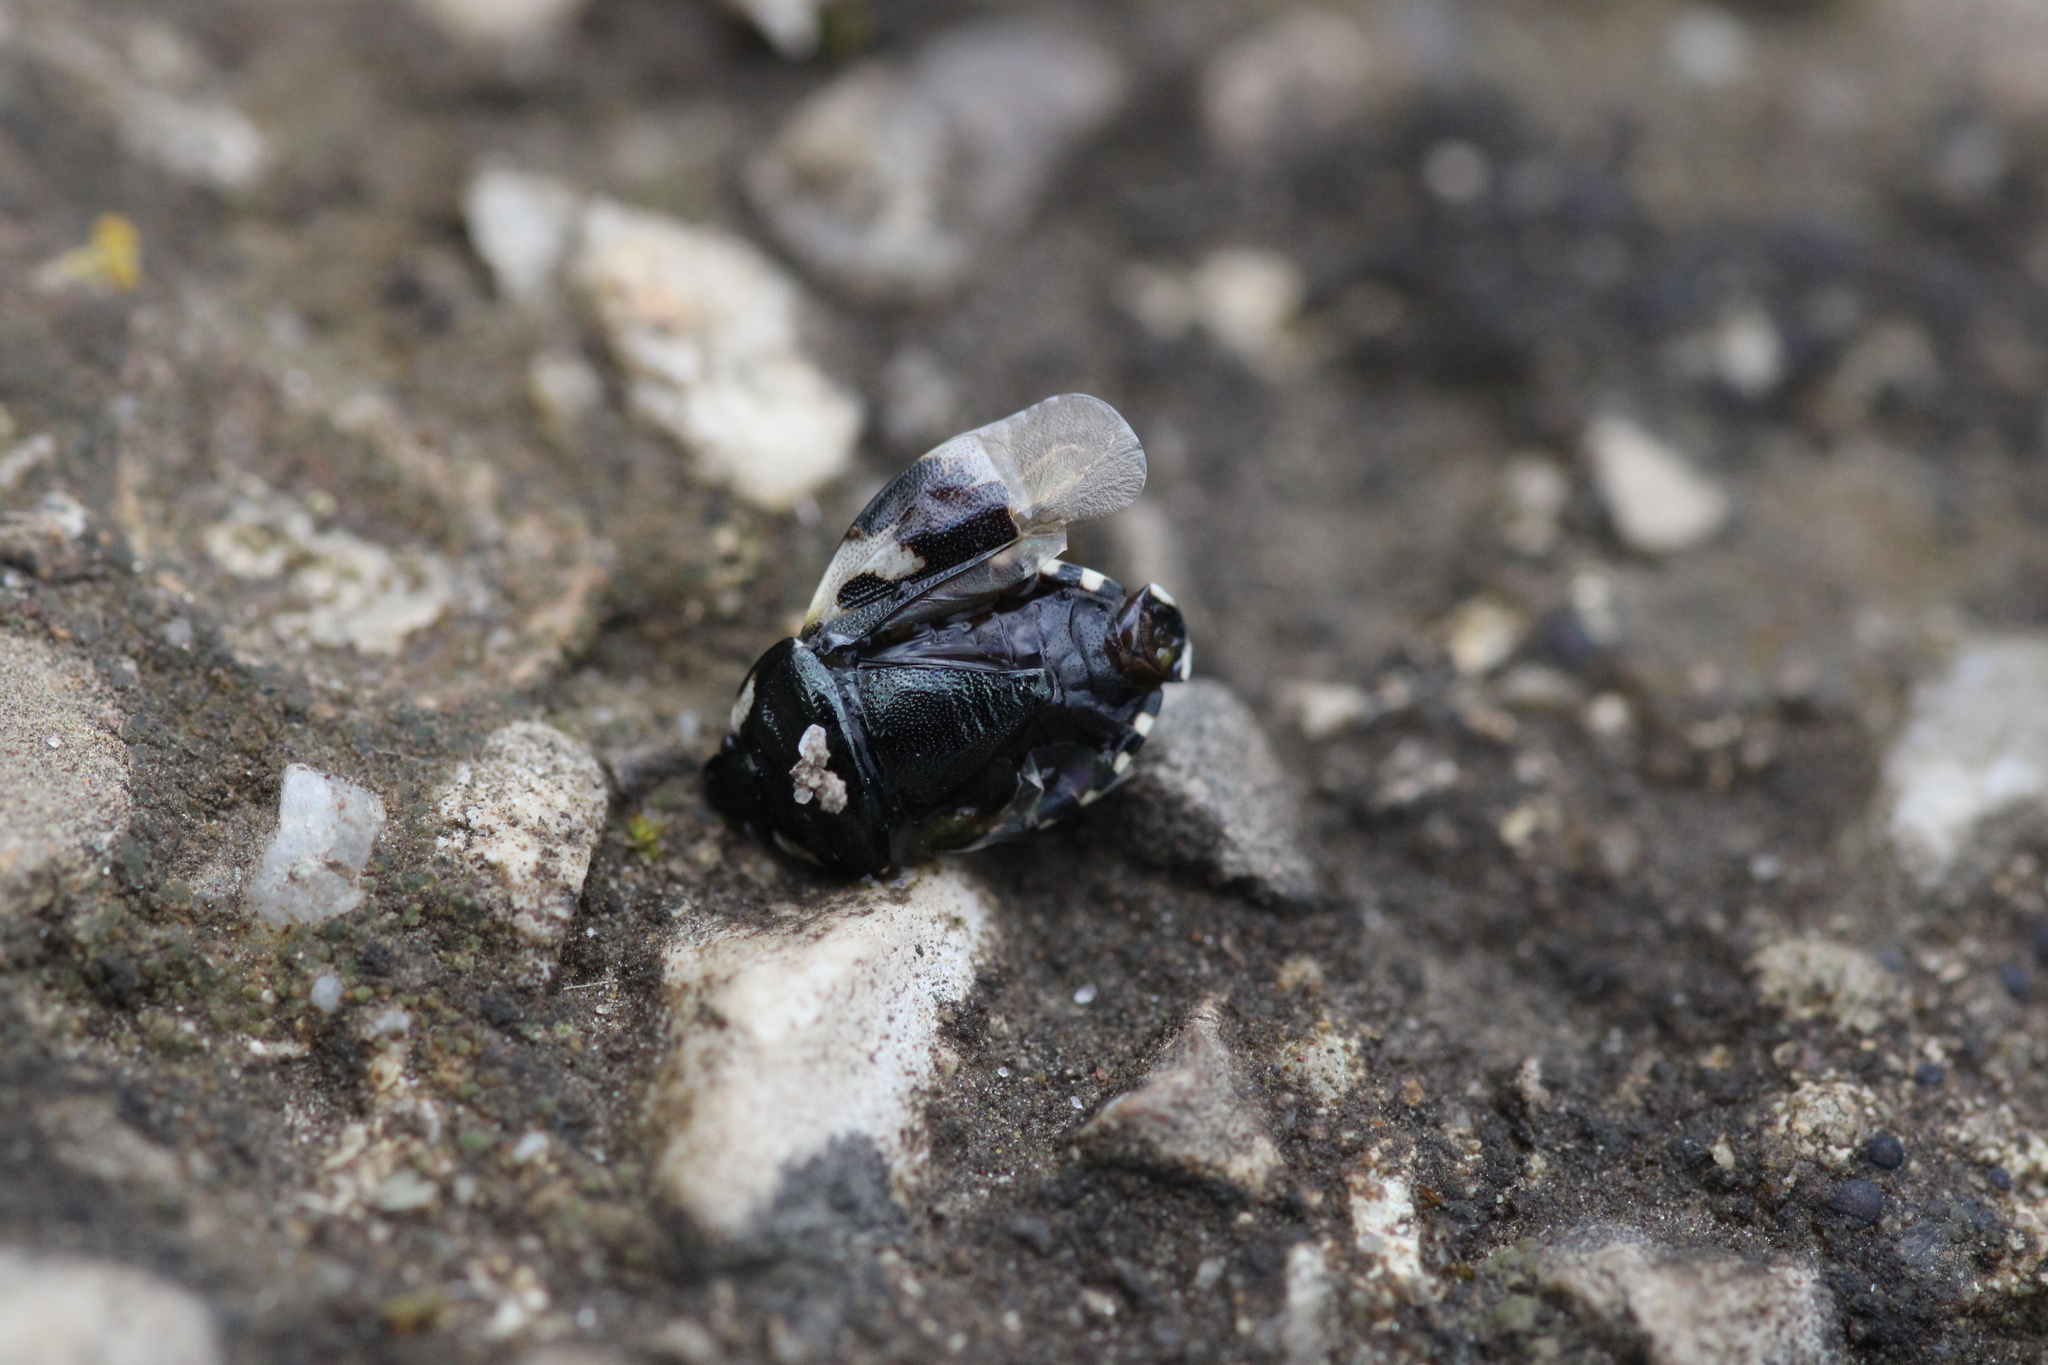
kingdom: Animalia
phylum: Arthropoda
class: Insecta
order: Hemiptera
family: Cydnidae
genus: Tritomegas
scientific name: Tritomegas bicolor
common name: Pied shieldbug
